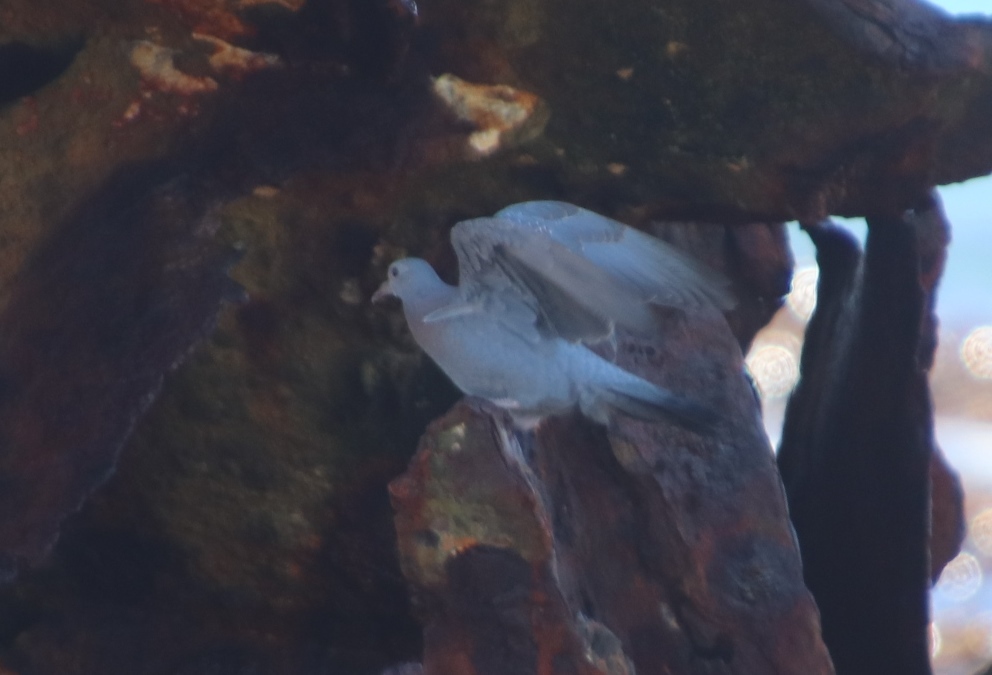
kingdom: Animalia
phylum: Chordata
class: Aves
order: Columbiformes
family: Columbidae
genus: Columba
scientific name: Columba guinea
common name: Speckled pigeon
